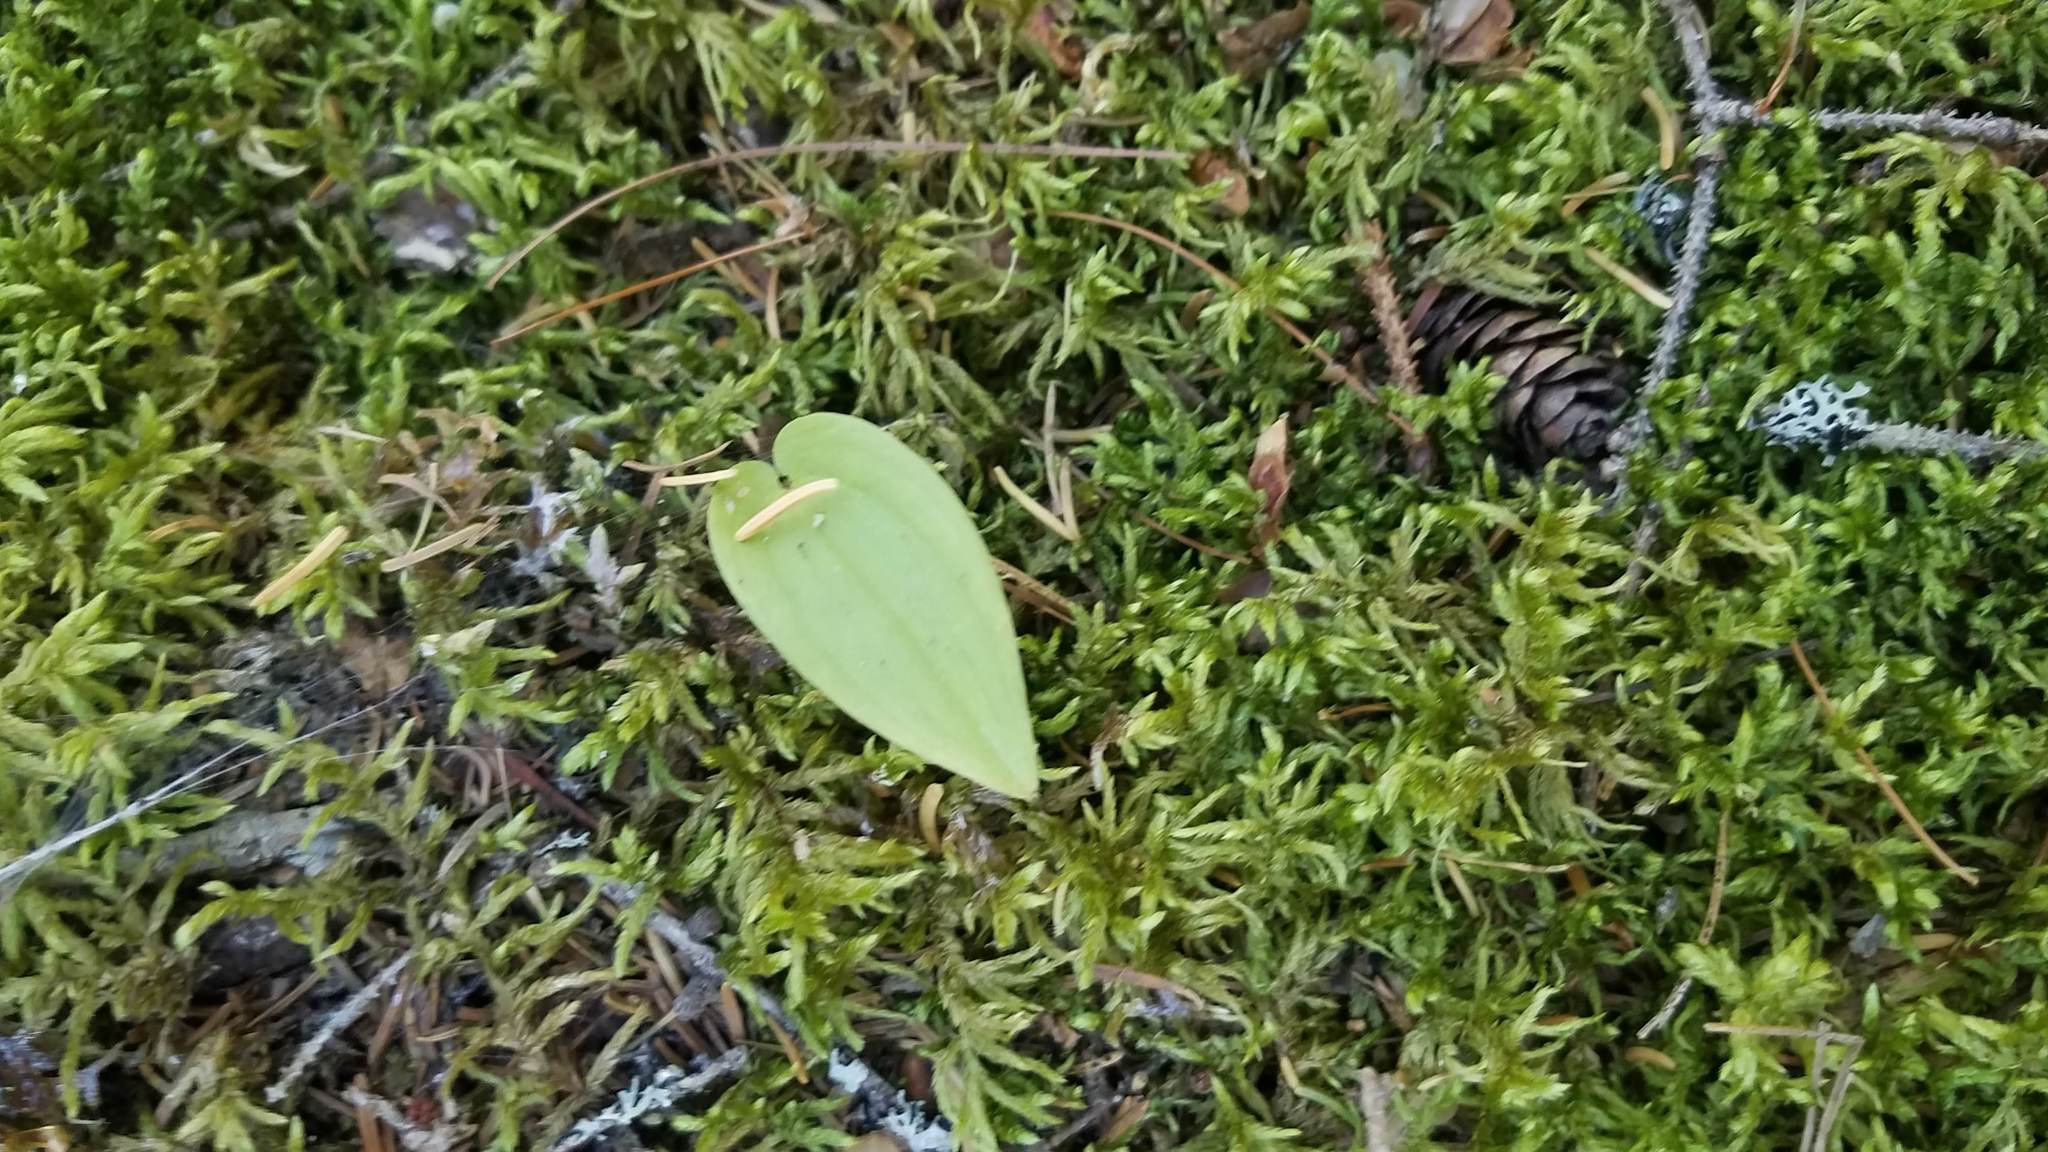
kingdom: Plantae
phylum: Tracheophyta
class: Liliopsida
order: Asparagales
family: Asparagaceae
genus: Maianthemum
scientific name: Maianthemum canadense
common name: False lily-of-the-valley
